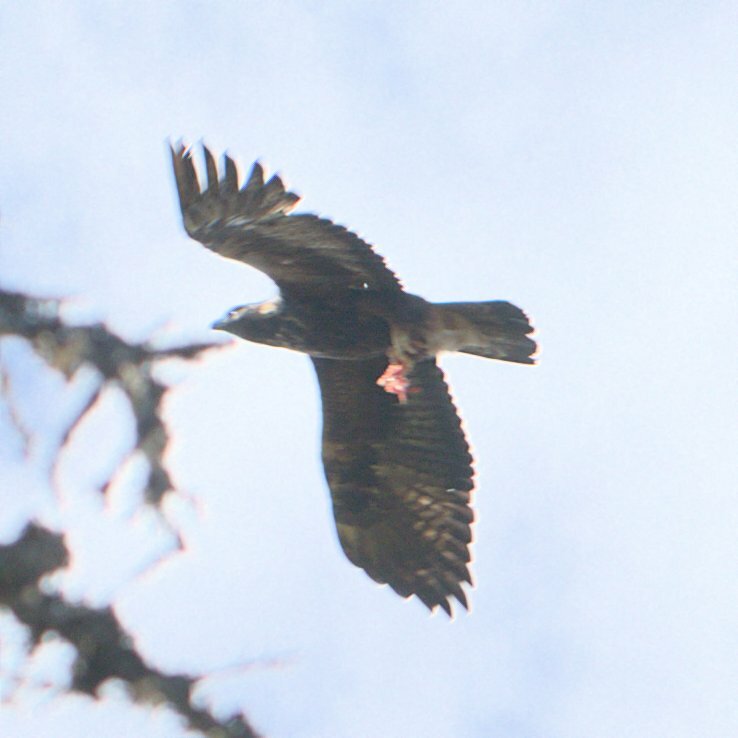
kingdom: Animalia
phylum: Chordata
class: Aves
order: Accipitriformes
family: Accipitridae
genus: Aquila
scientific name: Aquila chrysaetos
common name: Golden eagle
